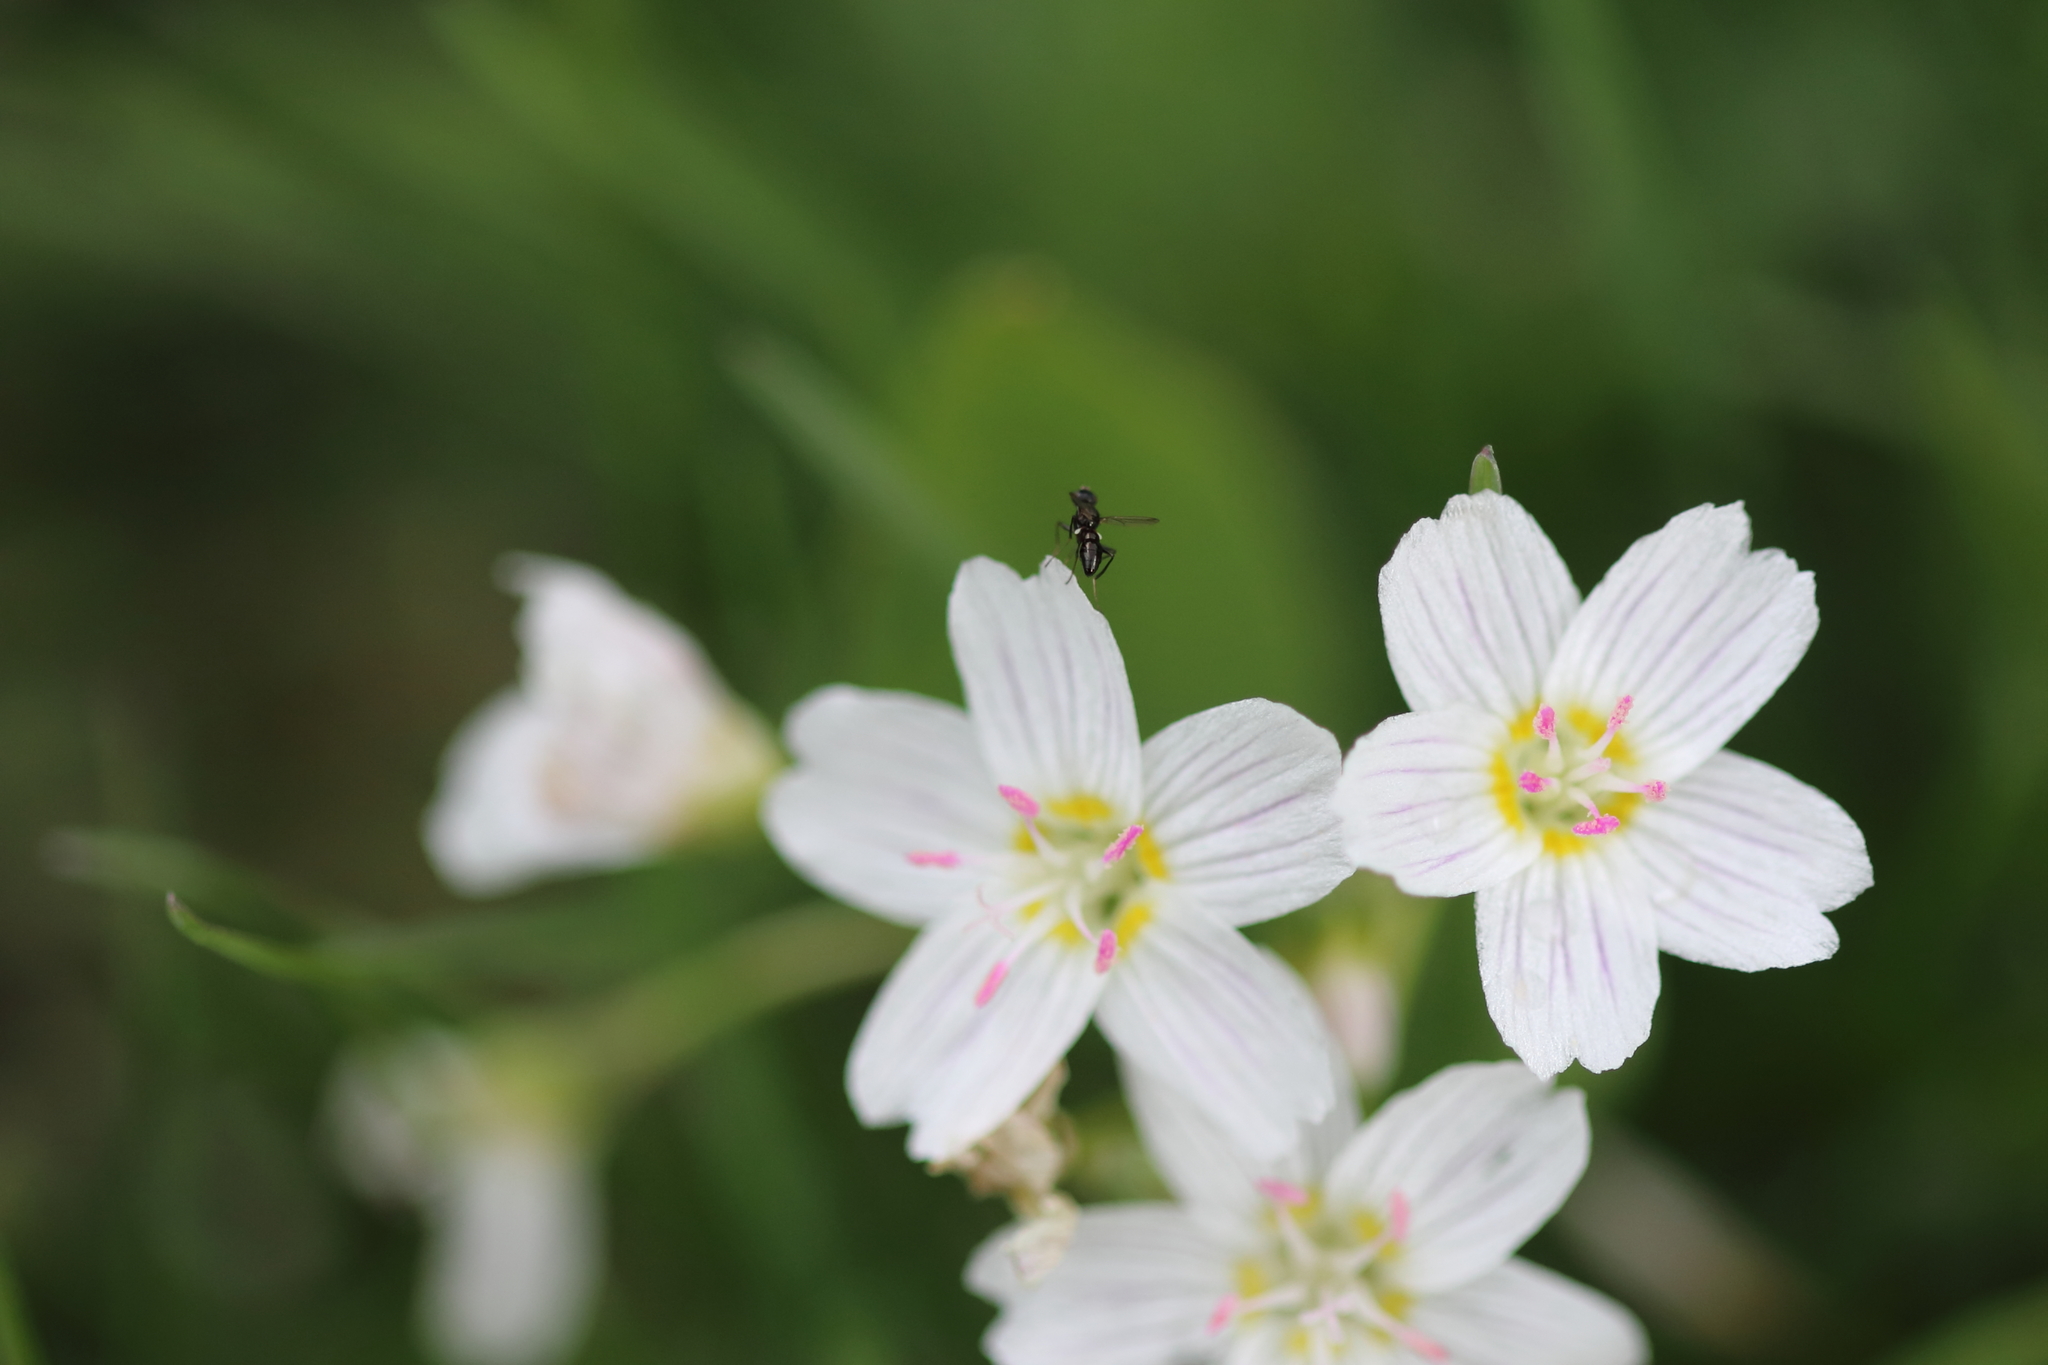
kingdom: Plantae
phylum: Tracheophyta
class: Magnoliopsida
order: Caryophyllales
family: Montiaceae
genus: Claytonia
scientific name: Claytonia lanceolata
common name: Western spring-beauty
